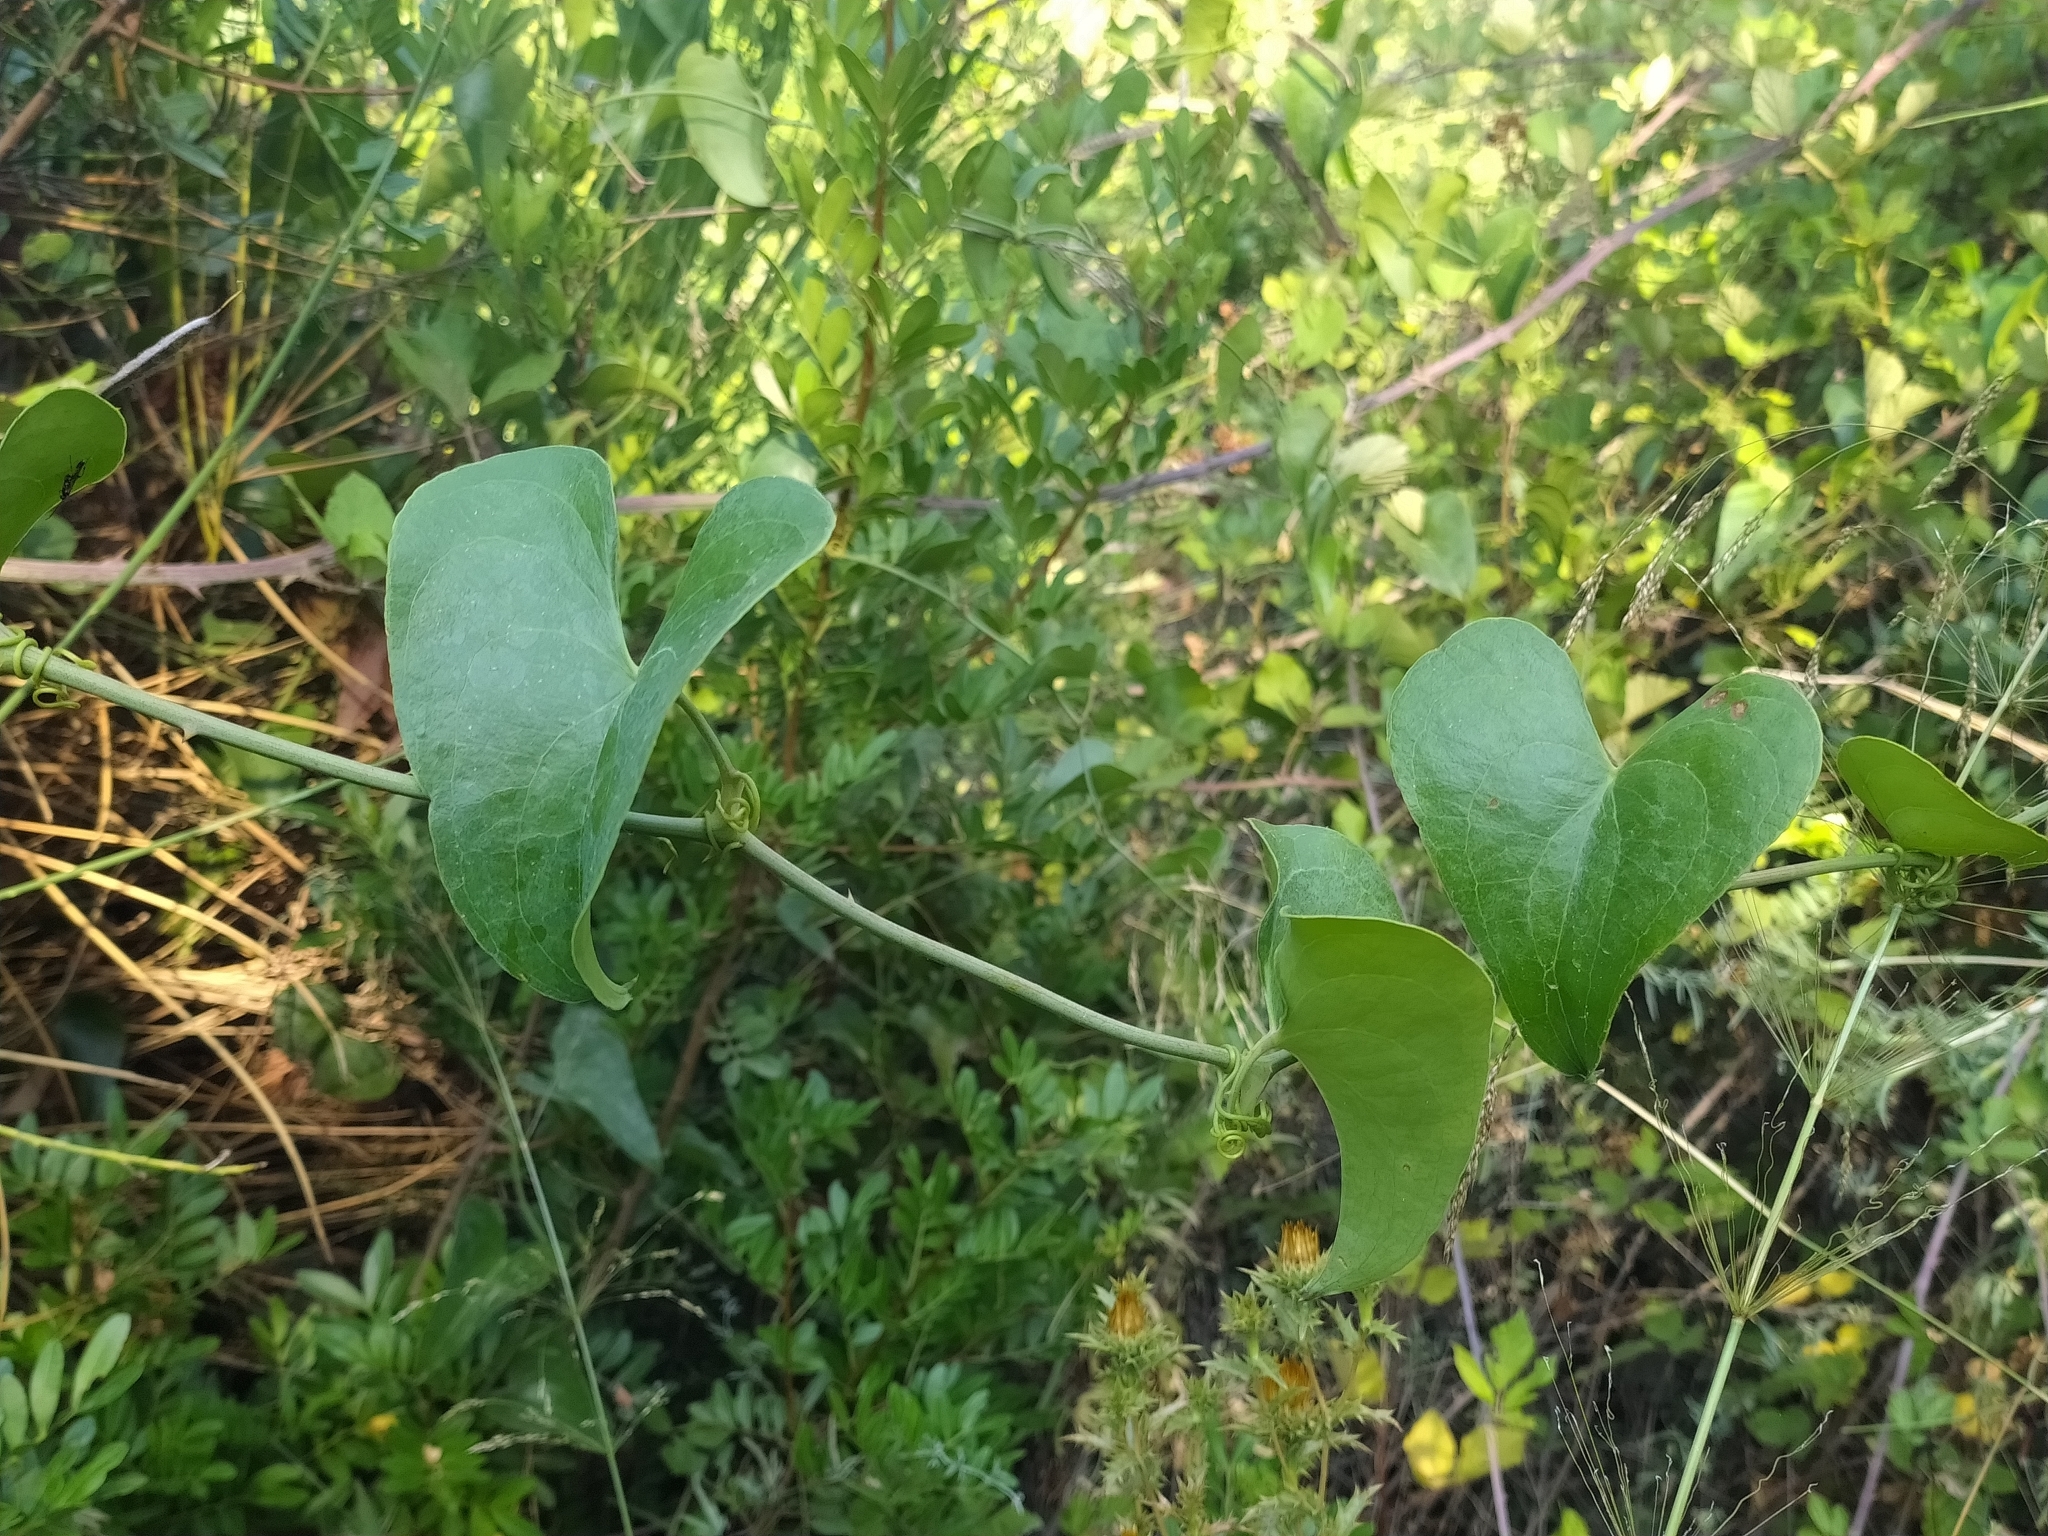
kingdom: Plantae
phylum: Tracheophyta
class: Liliopsida
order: Liliales
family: Smilacaceae
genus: Smilax
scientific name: Smilax aspera
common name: Common smilax
